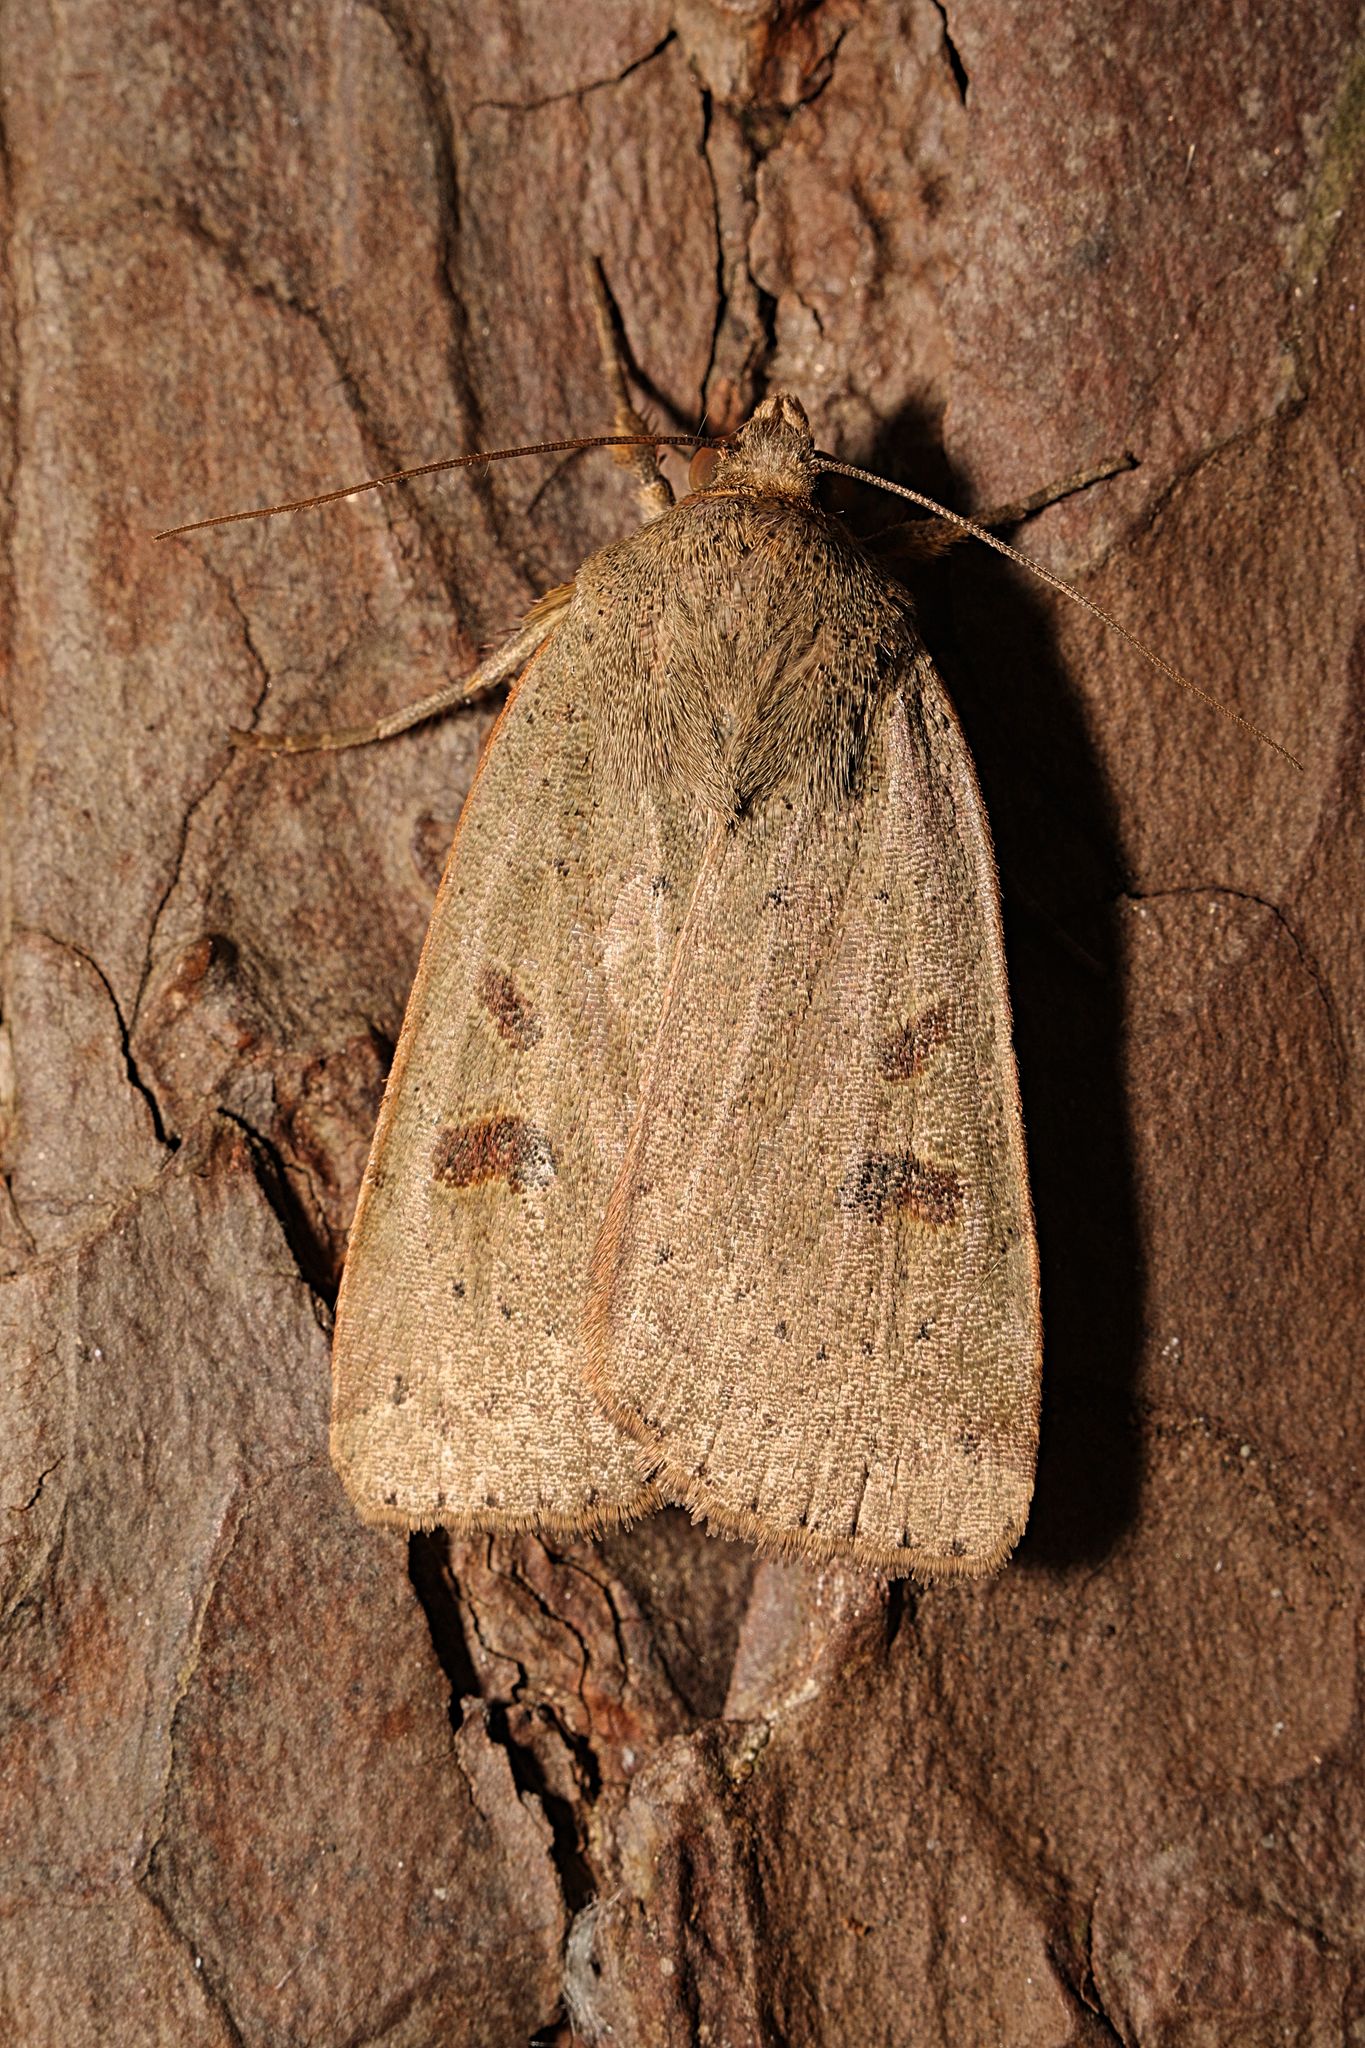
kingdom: Animalia
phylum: Arthropoda
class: Insecta
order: Lepidoptera
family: Noctuidae
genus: Noctua
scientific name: Noctua comes
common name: Lesser yellow underwing
